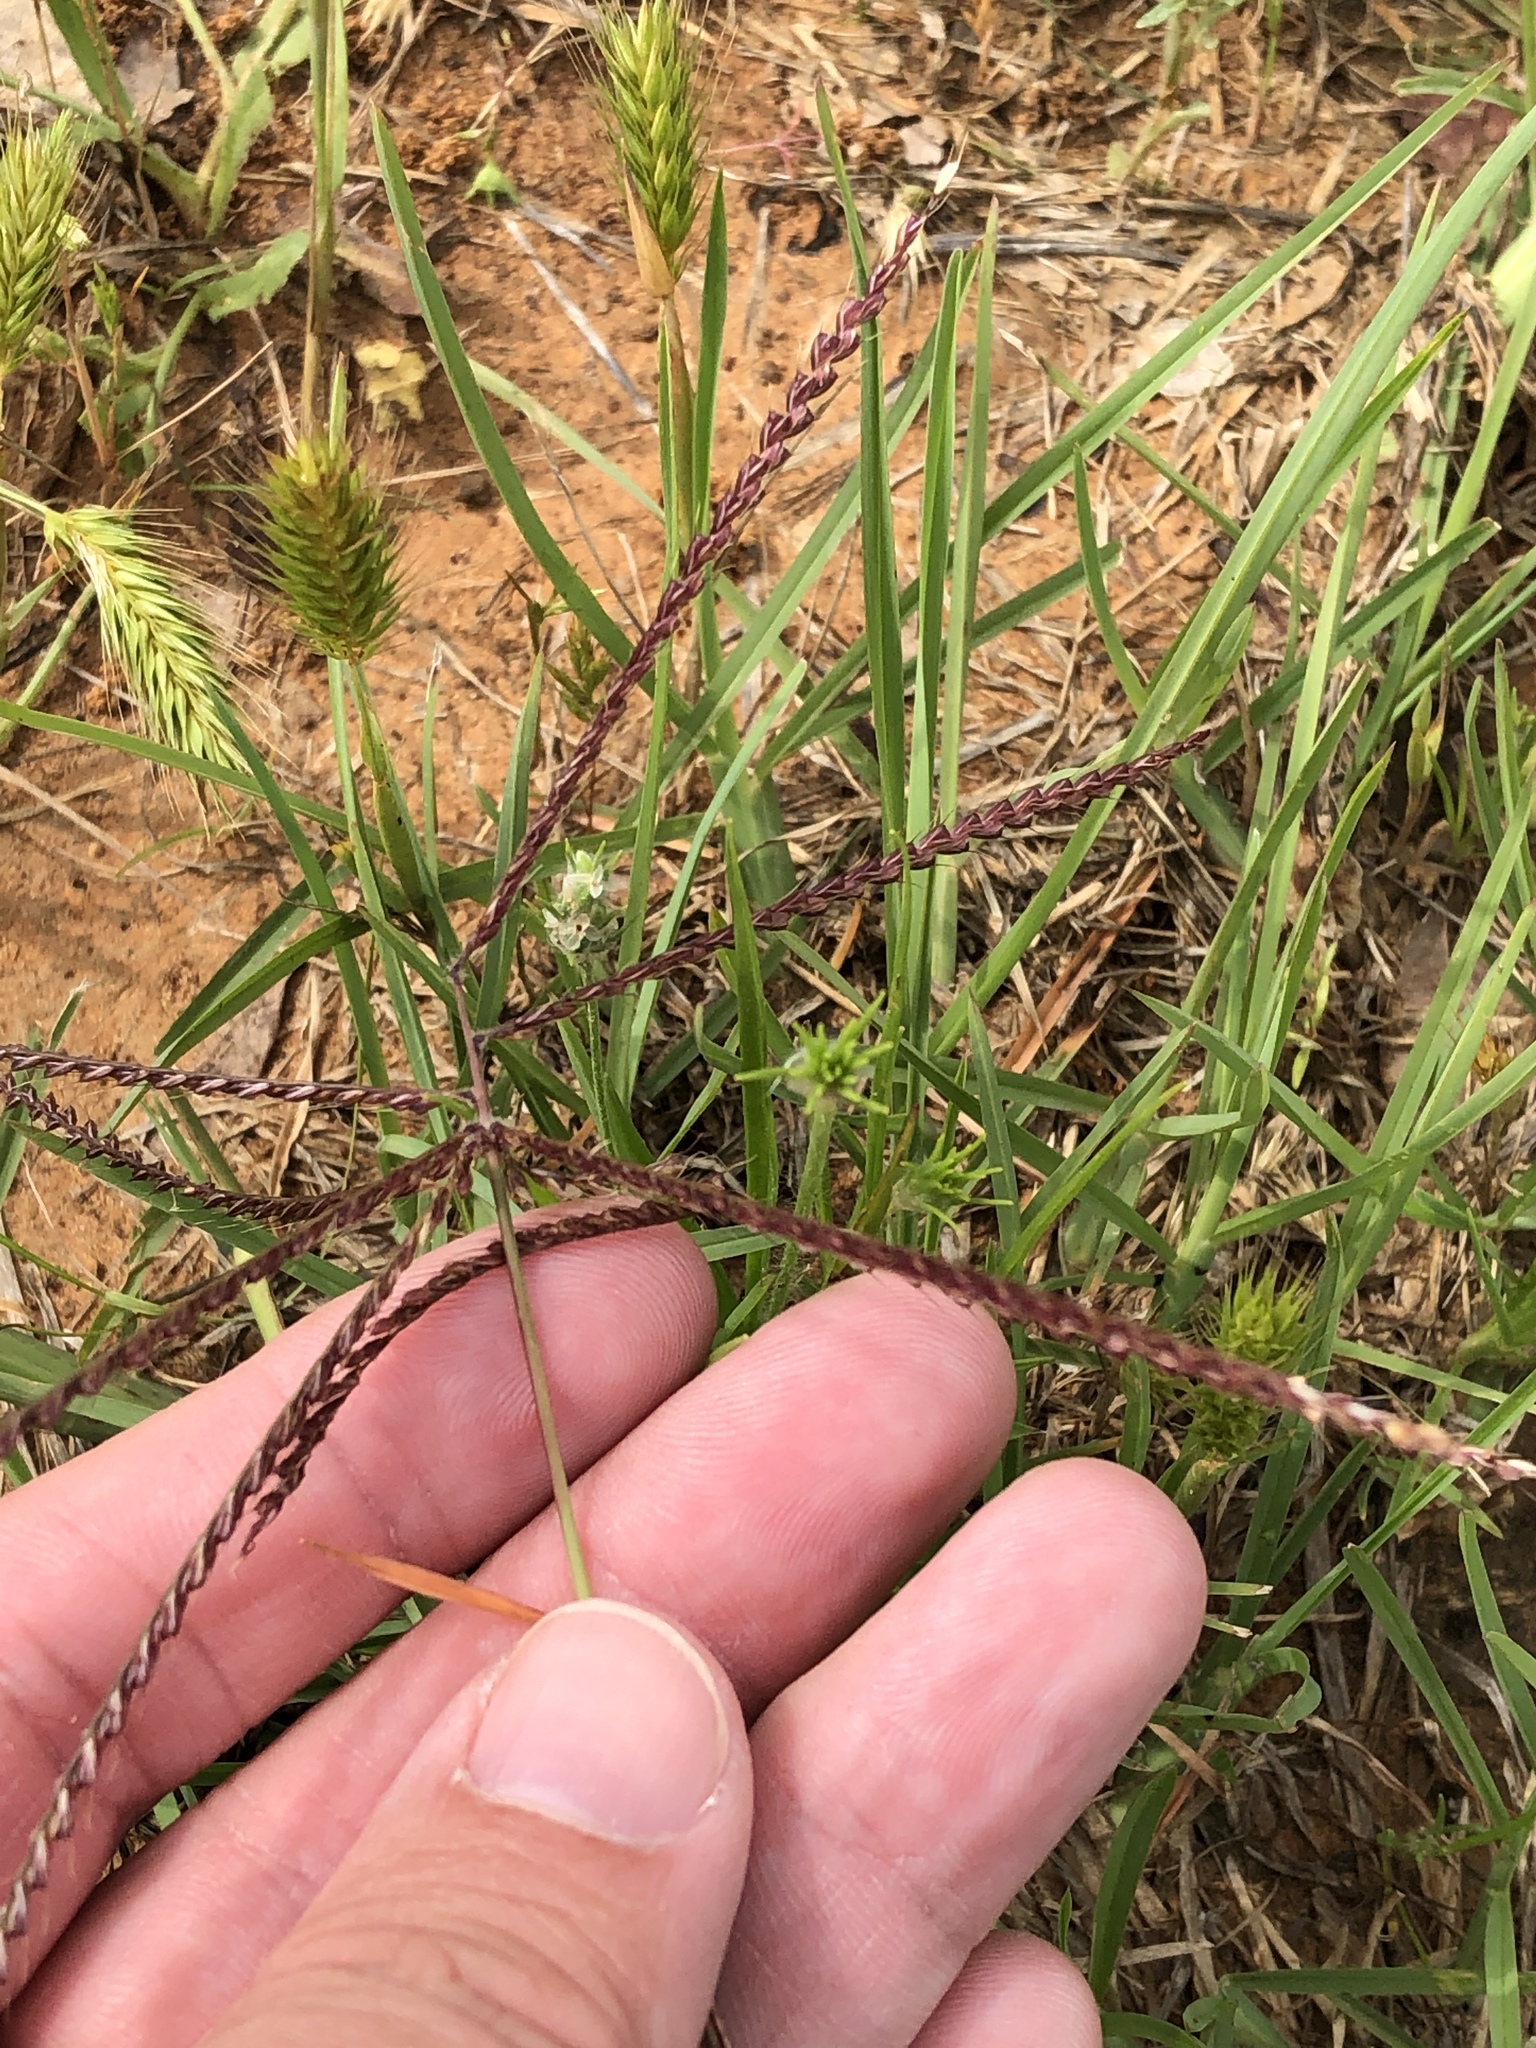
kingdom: Plantae
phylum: Tracheophyta
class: Liliopsida
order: Poales
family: Poaceae
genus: Chloris
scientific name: Chloris verticillata
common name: Tumble windmill grass
